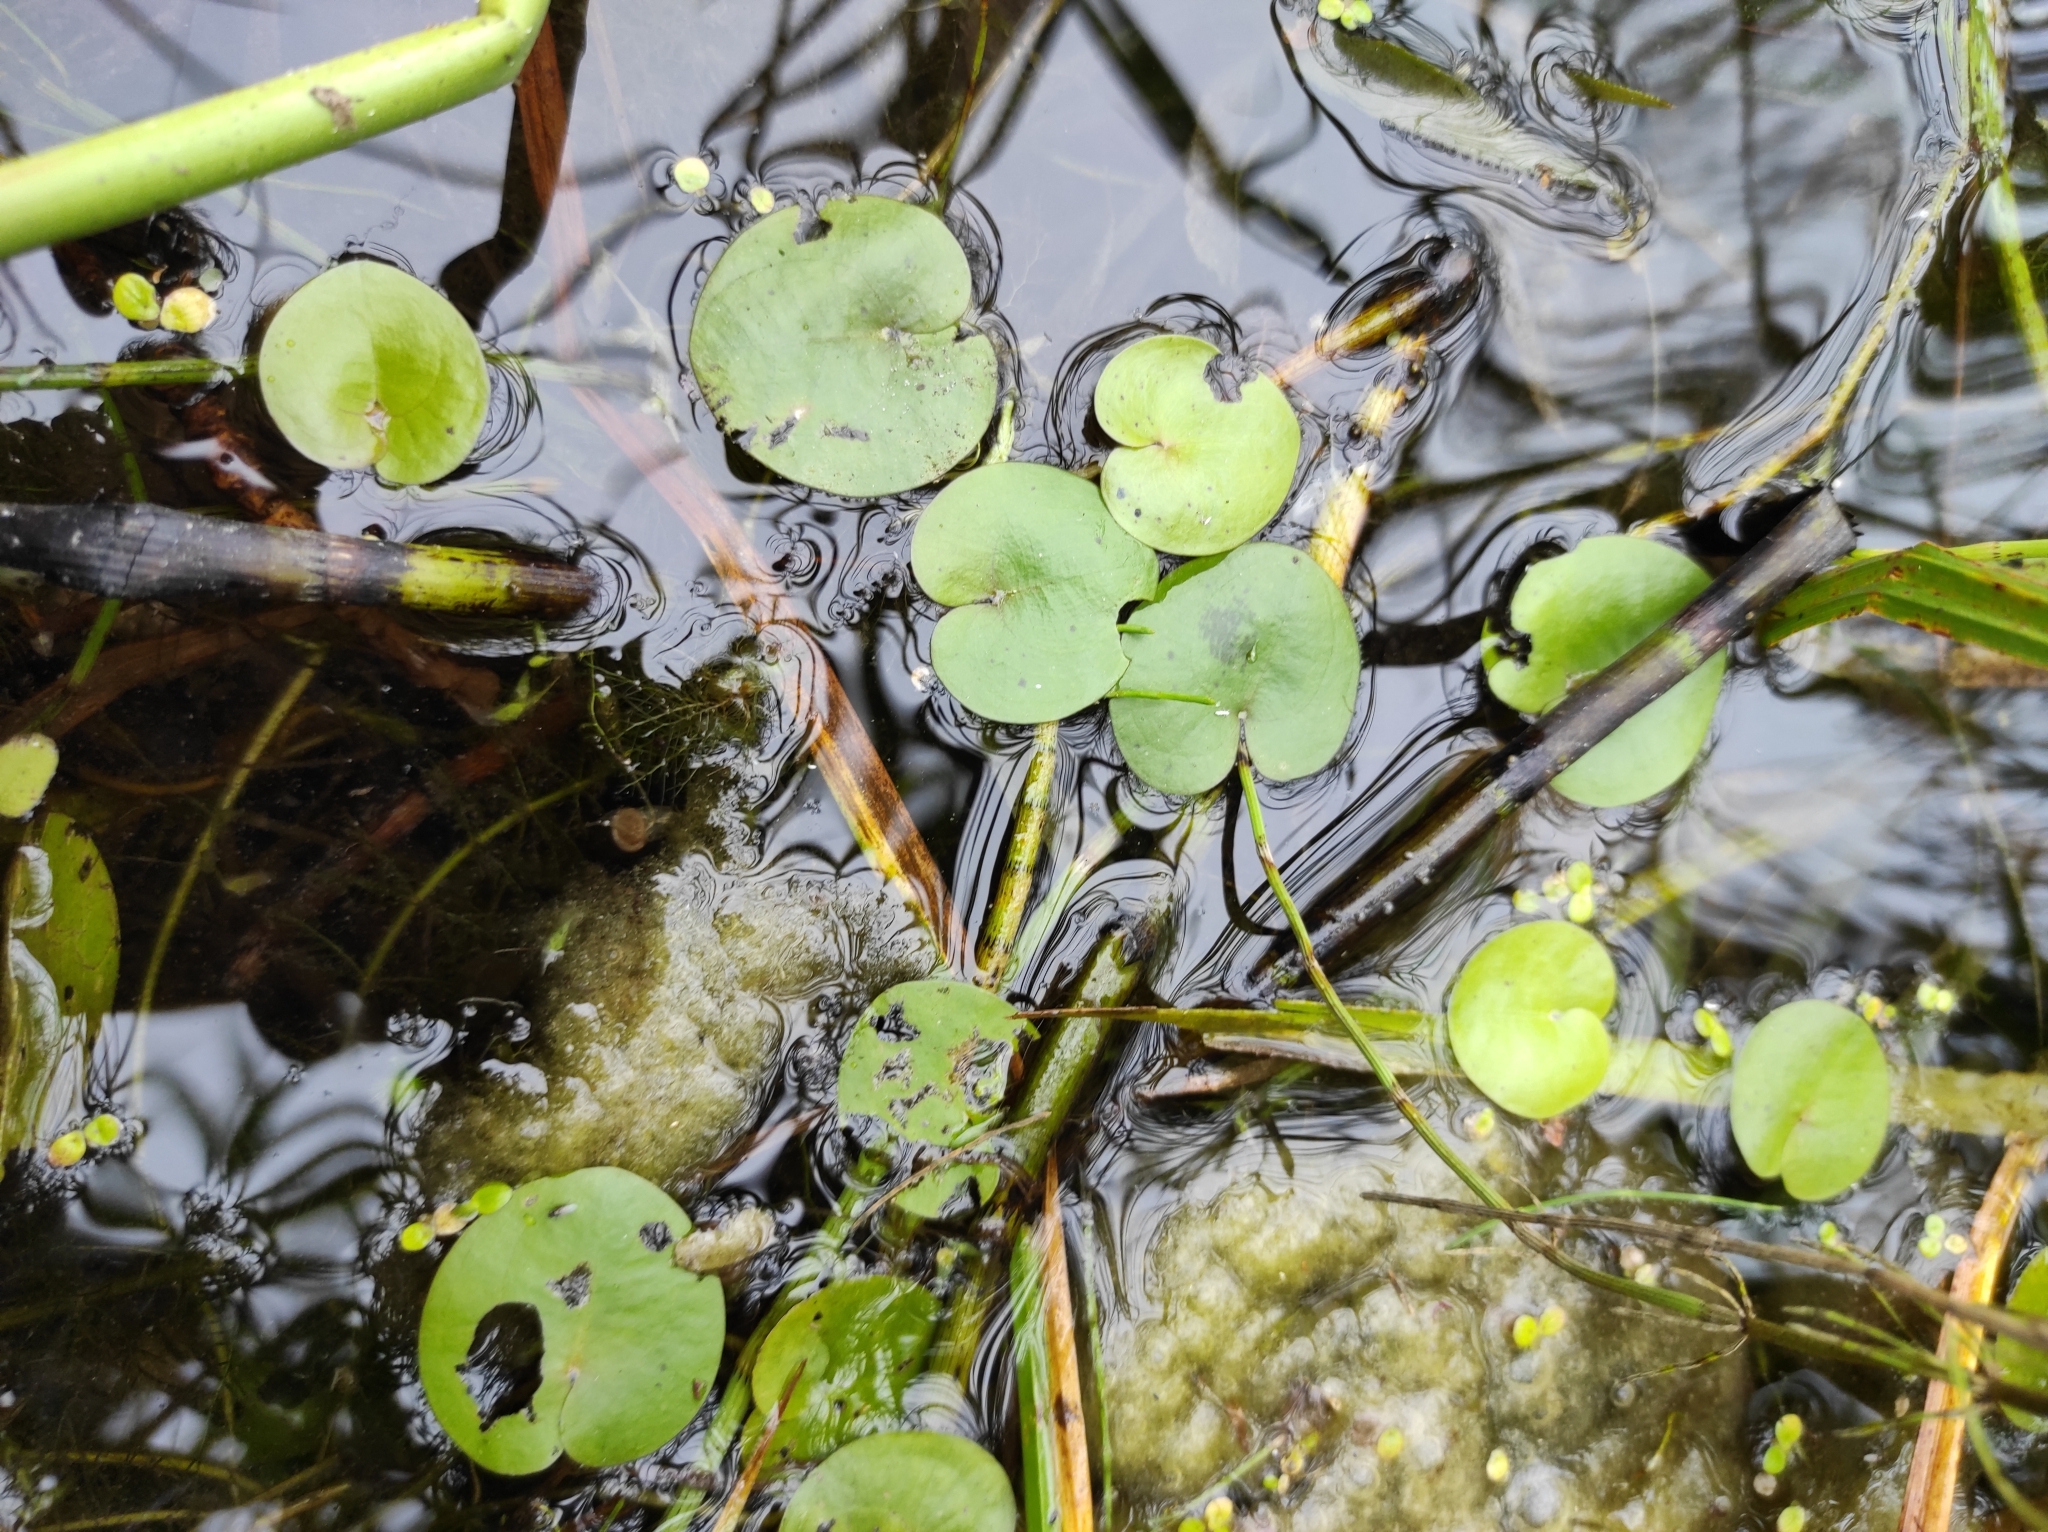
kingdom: Plantae
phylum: Tracheophyta
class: Liliopsida
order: Alismatales
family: Hydrocharitaceae
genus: Hydrocharis
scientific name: Hydrocharis morsus-ranae
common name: Frogbit
